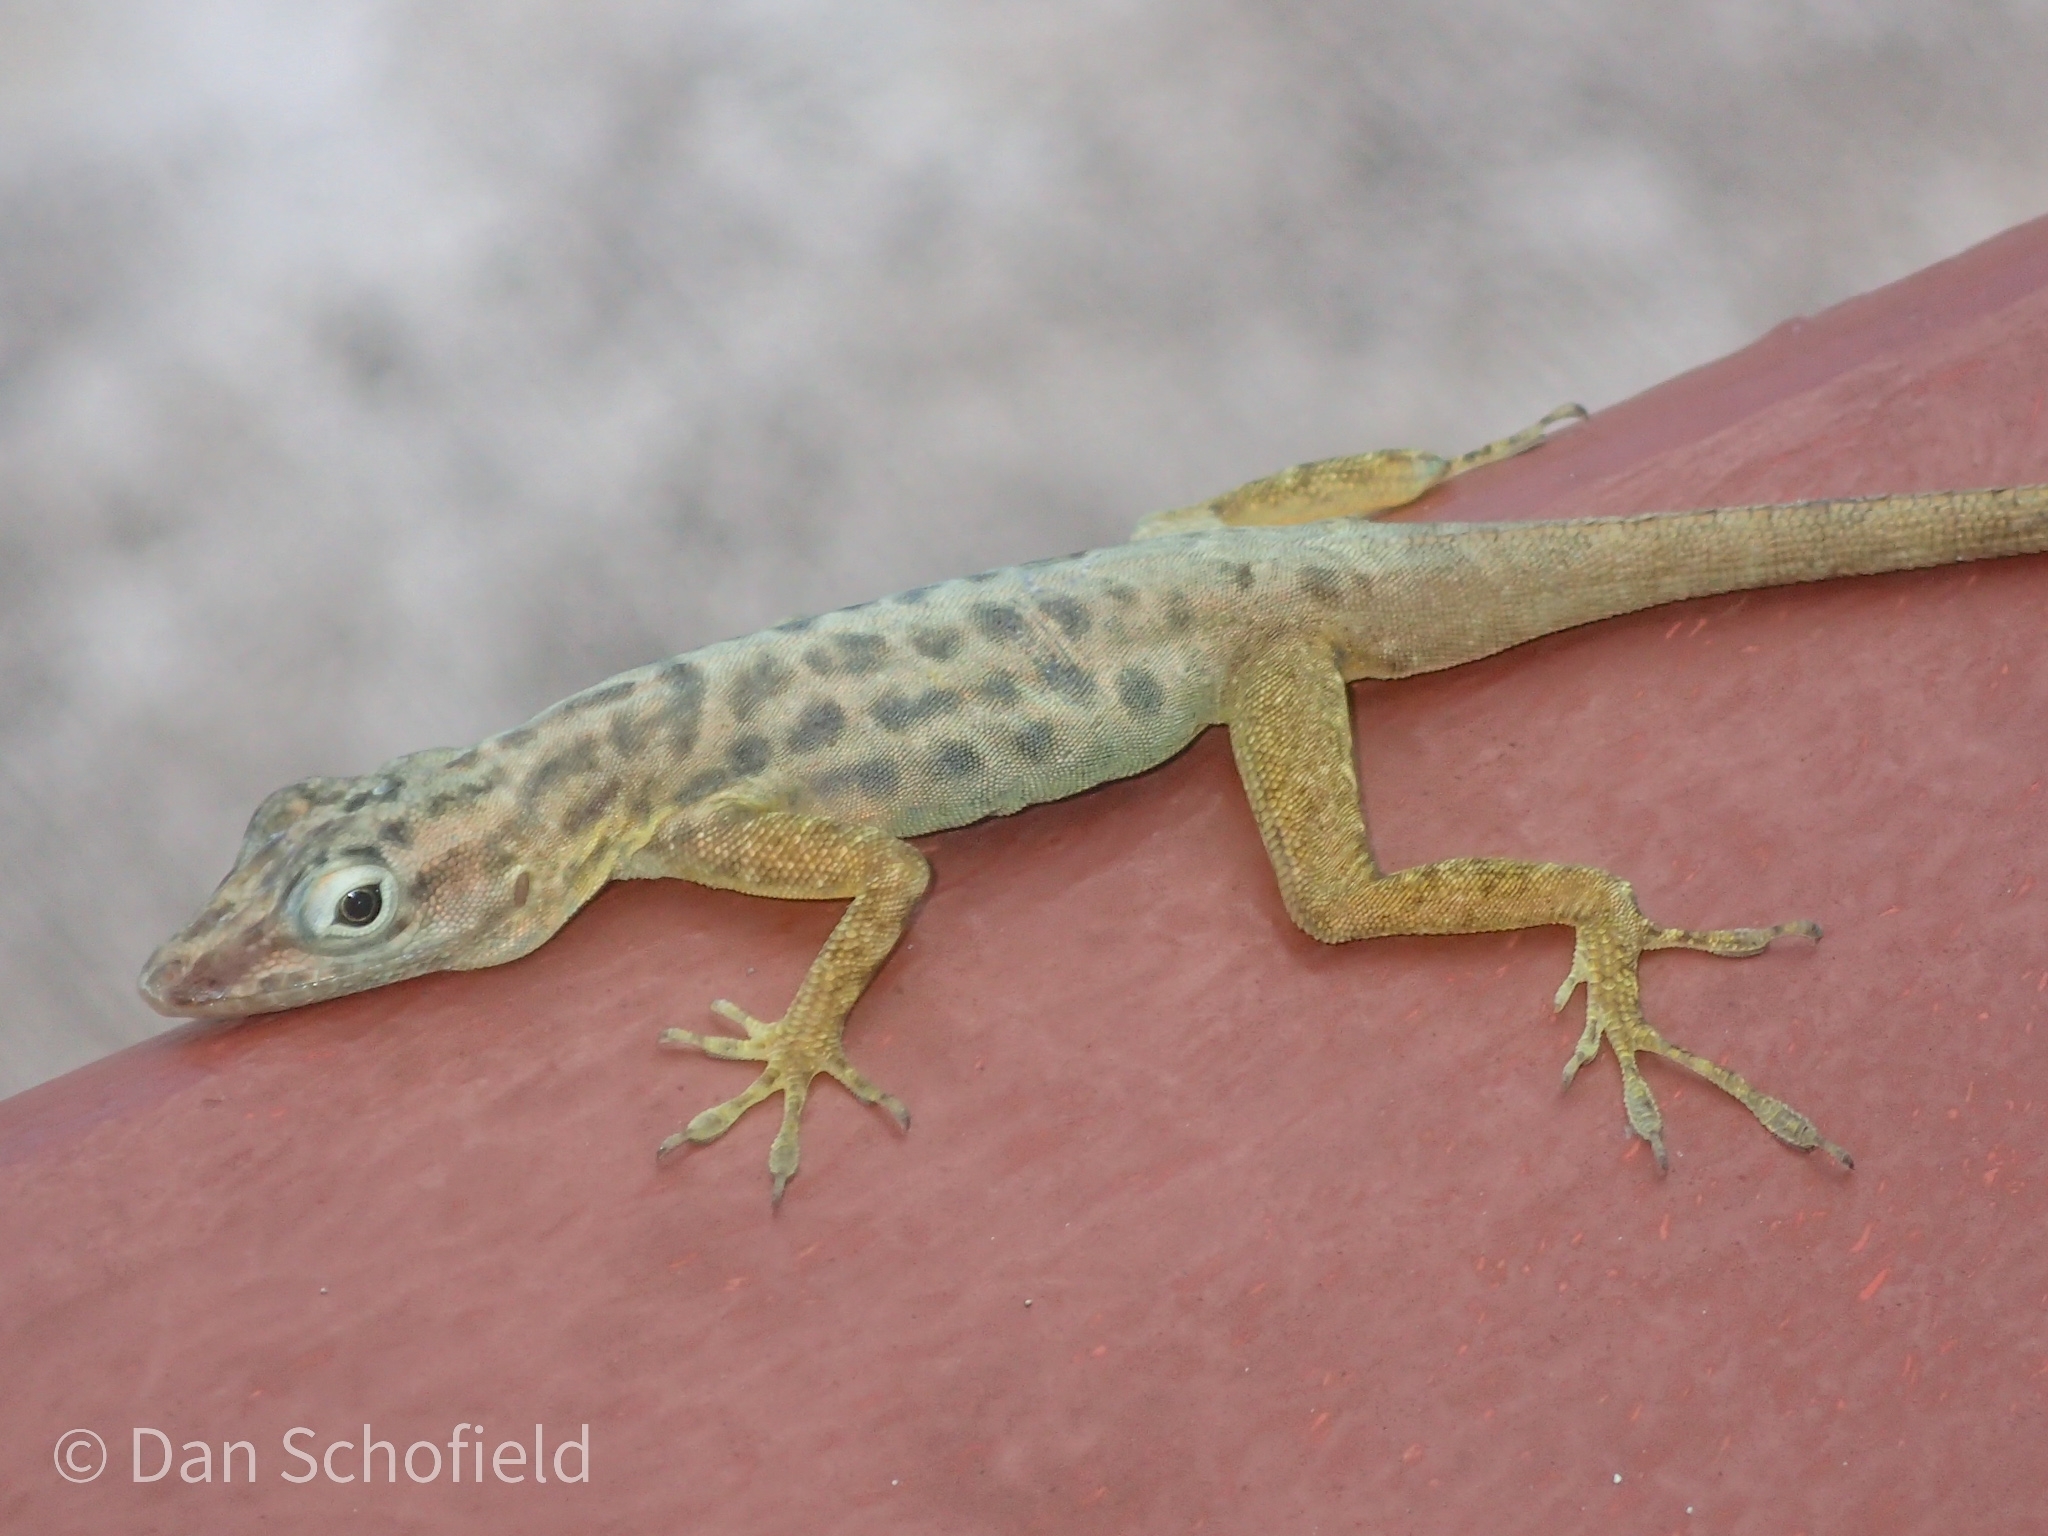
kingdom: Animalia
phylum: Chordata
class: Squamata
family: Dactyloidae
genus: Anolis
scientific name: Anolis sabanus
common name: Saba anole
